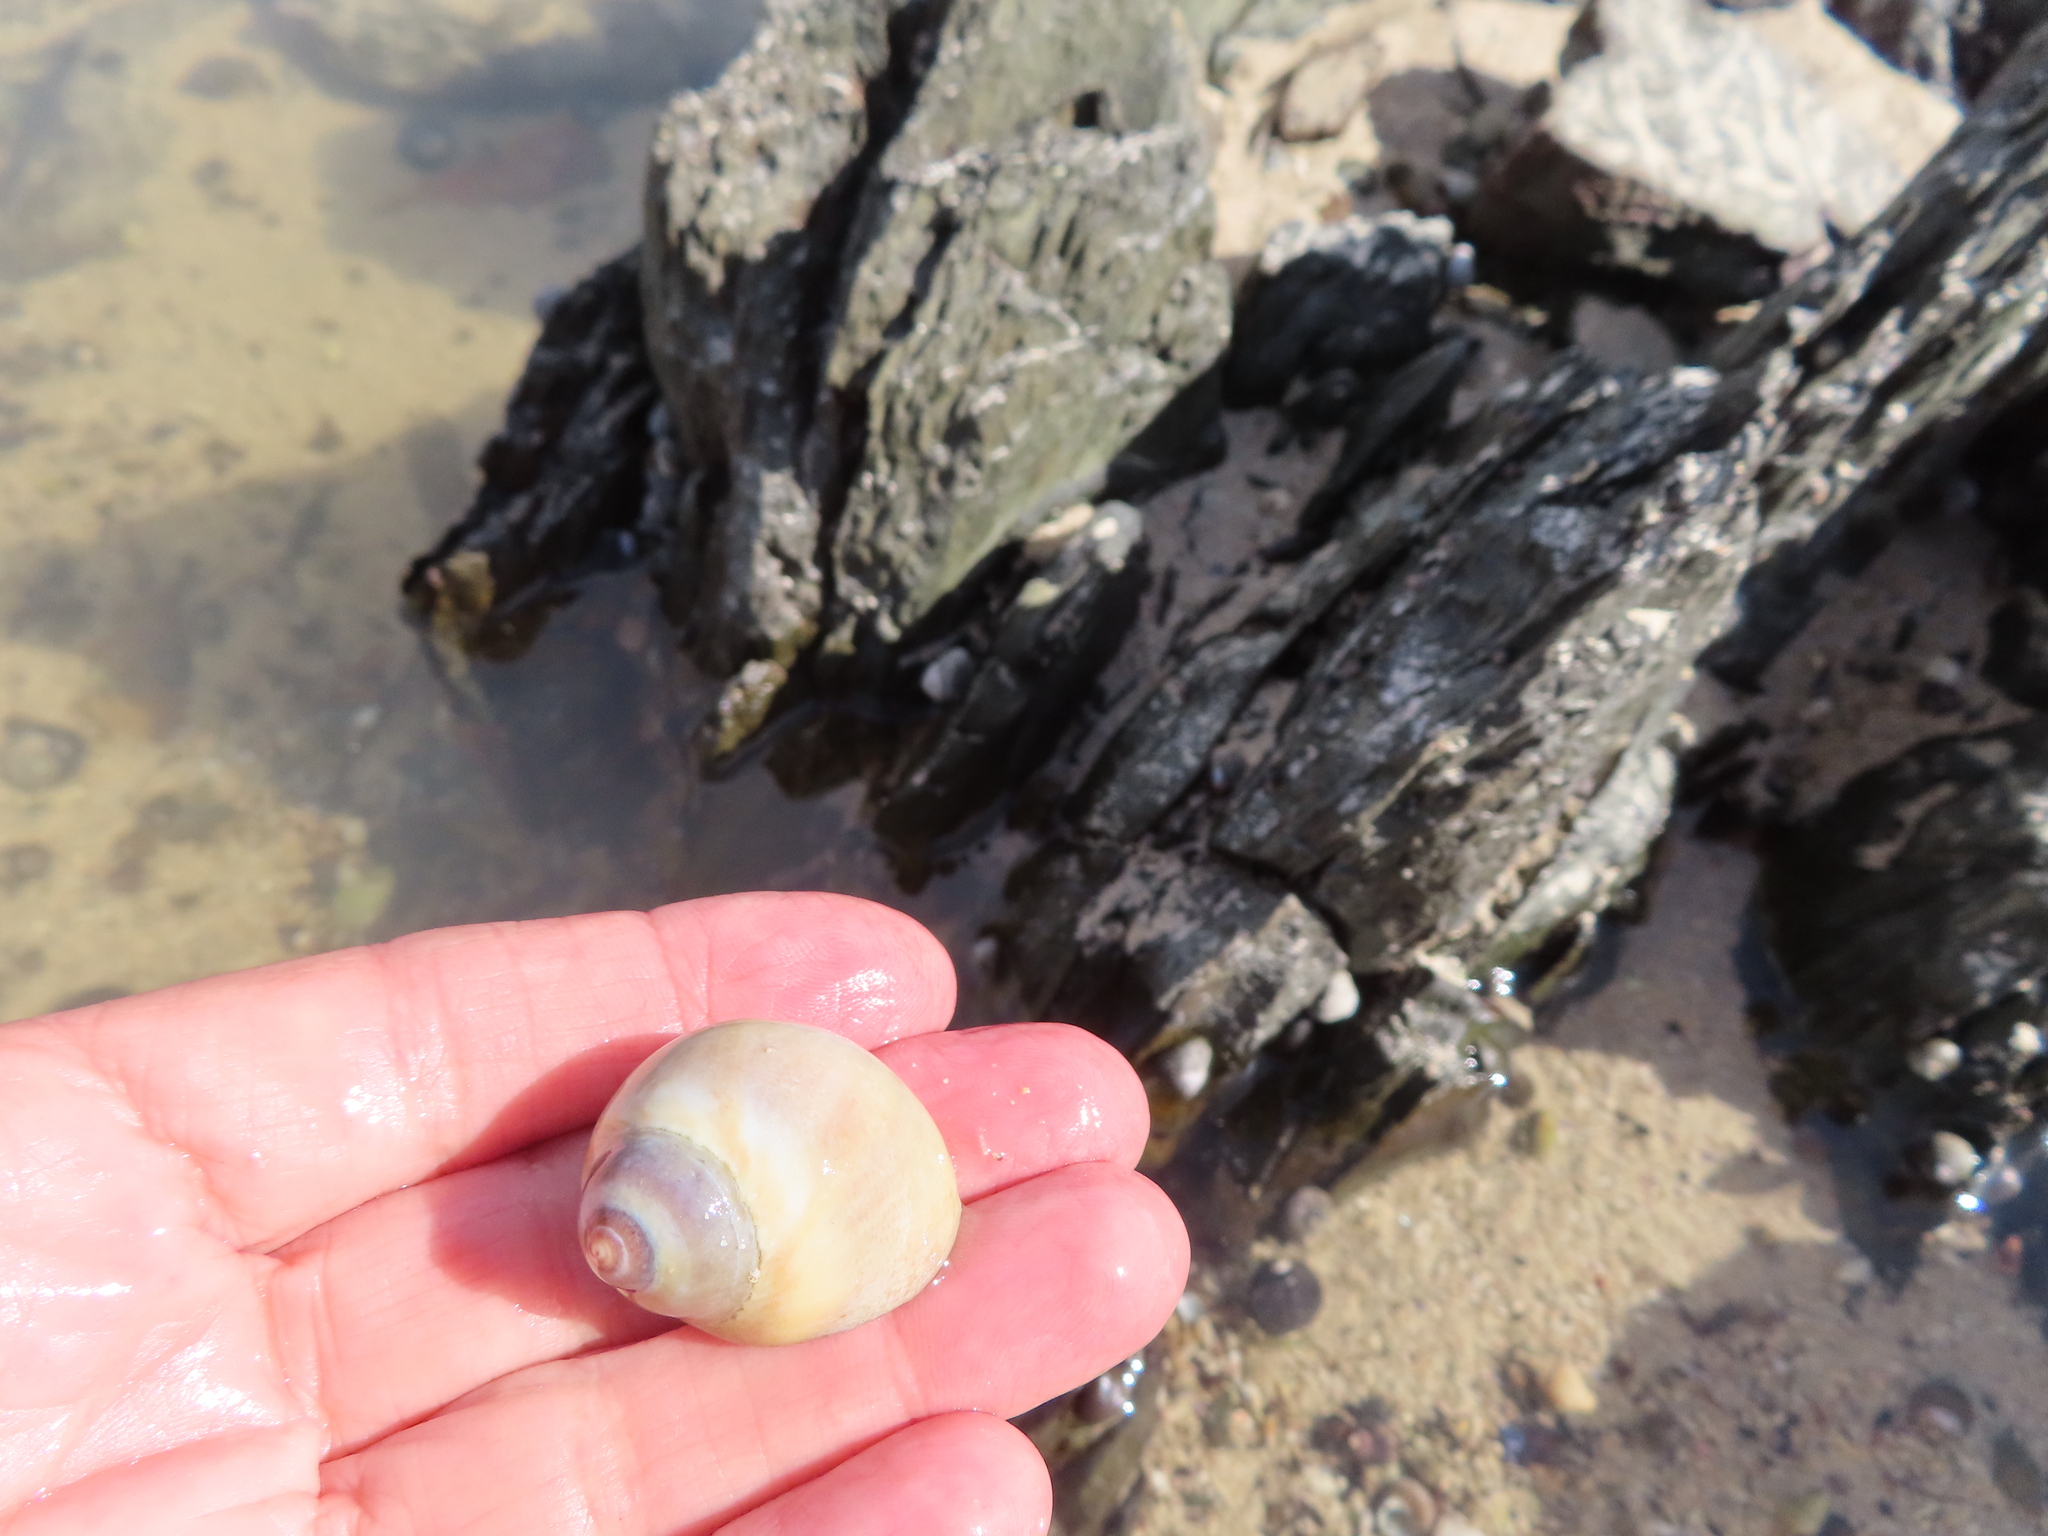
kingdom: Animalia
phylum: Mollusca
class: Gastropoda
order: Neogastropoda
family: Nassariidae
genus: Bullia
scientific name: Bullia laevissima
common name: Fat plough shell
